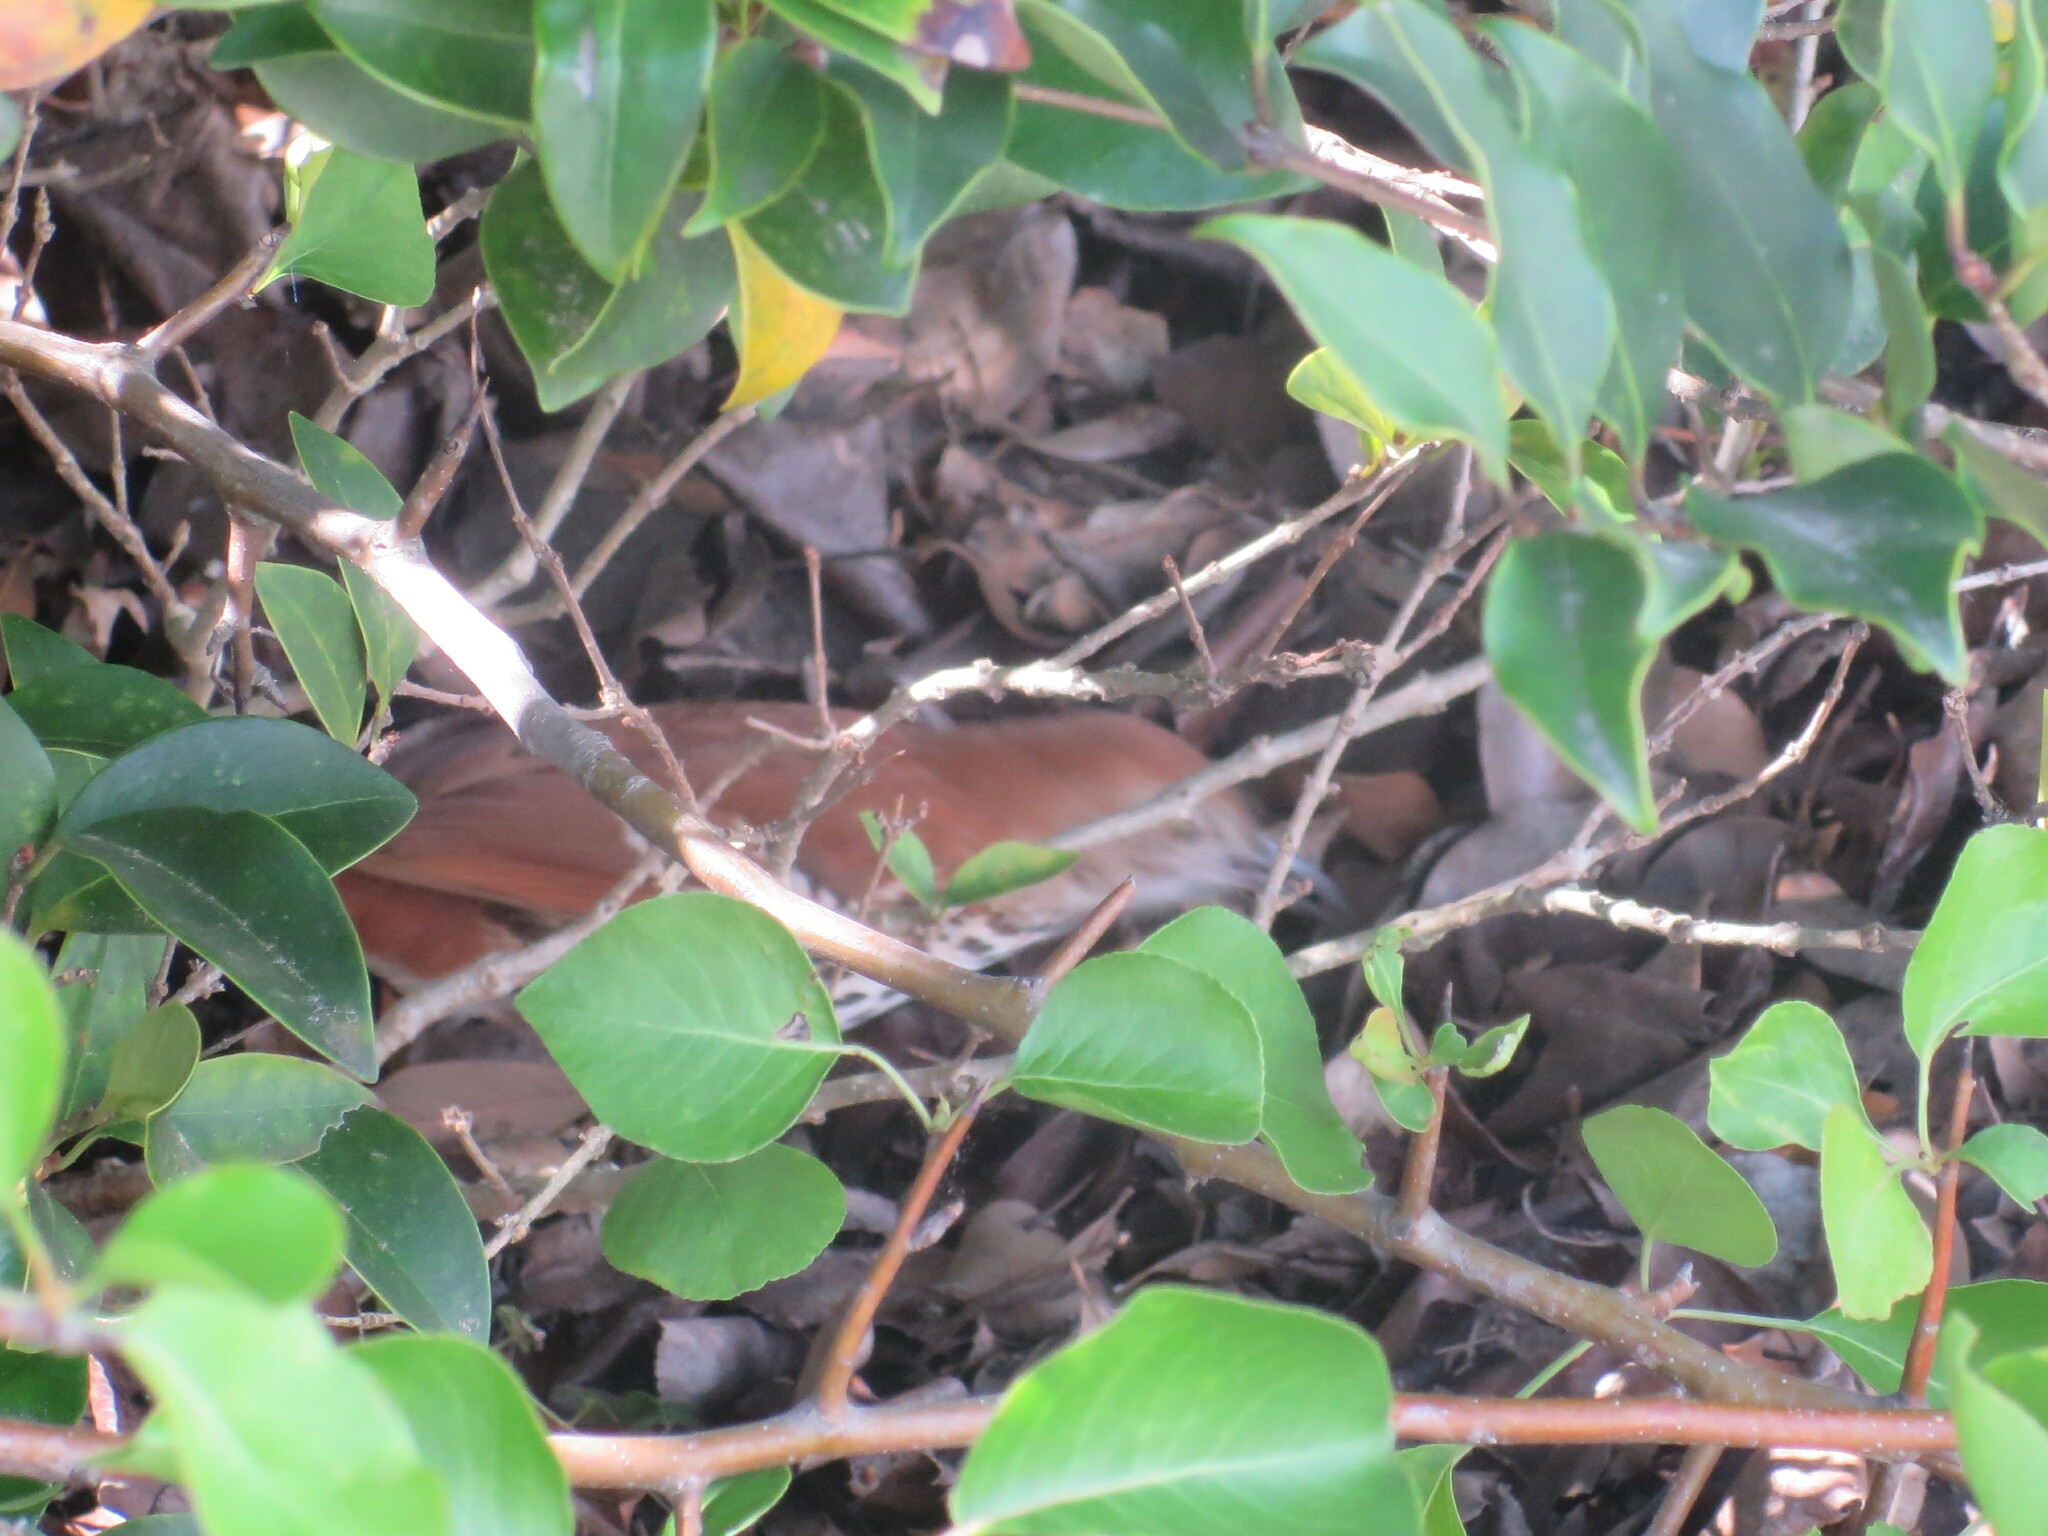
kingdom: Animalia
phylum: Chordata
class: Aves
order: Passeriformes
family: Mimidae
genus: Toxostoma
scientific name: Toxostoma rufum
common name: Brown thrasher
